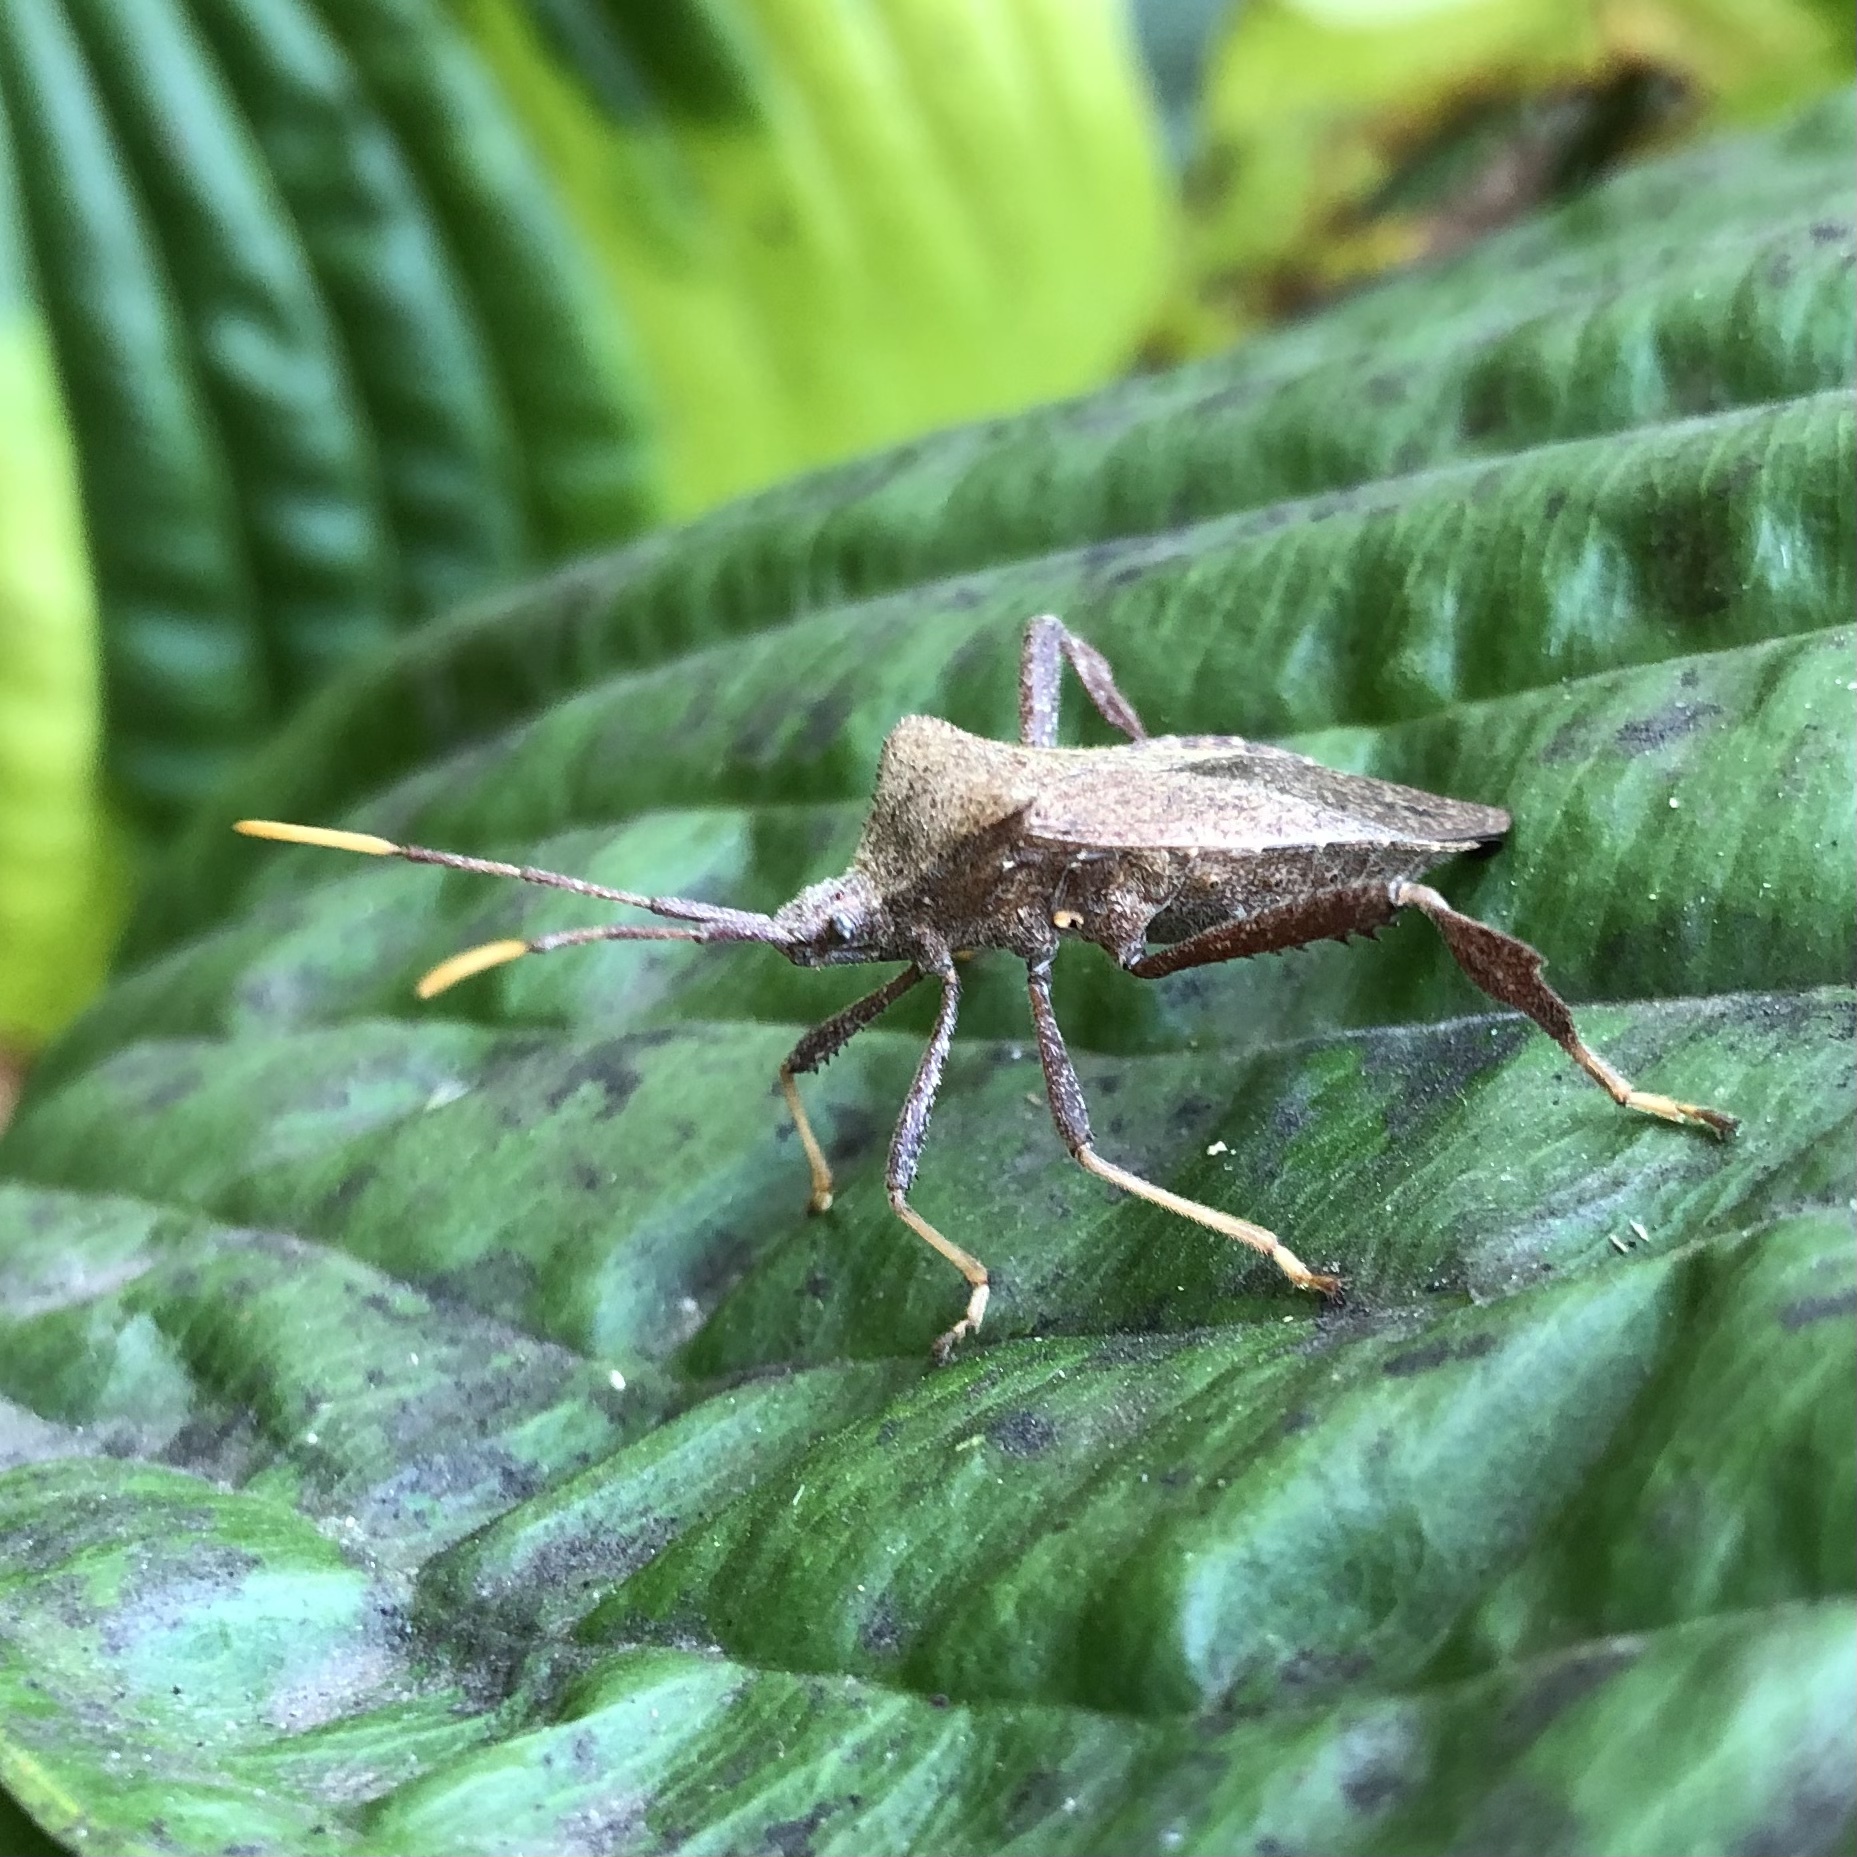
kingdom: Animalia
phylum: Arthropoda
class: Insecta
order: Hemiptera
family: Coreidae
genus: Acanthocephala
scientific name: Acanthocephala terminalis
